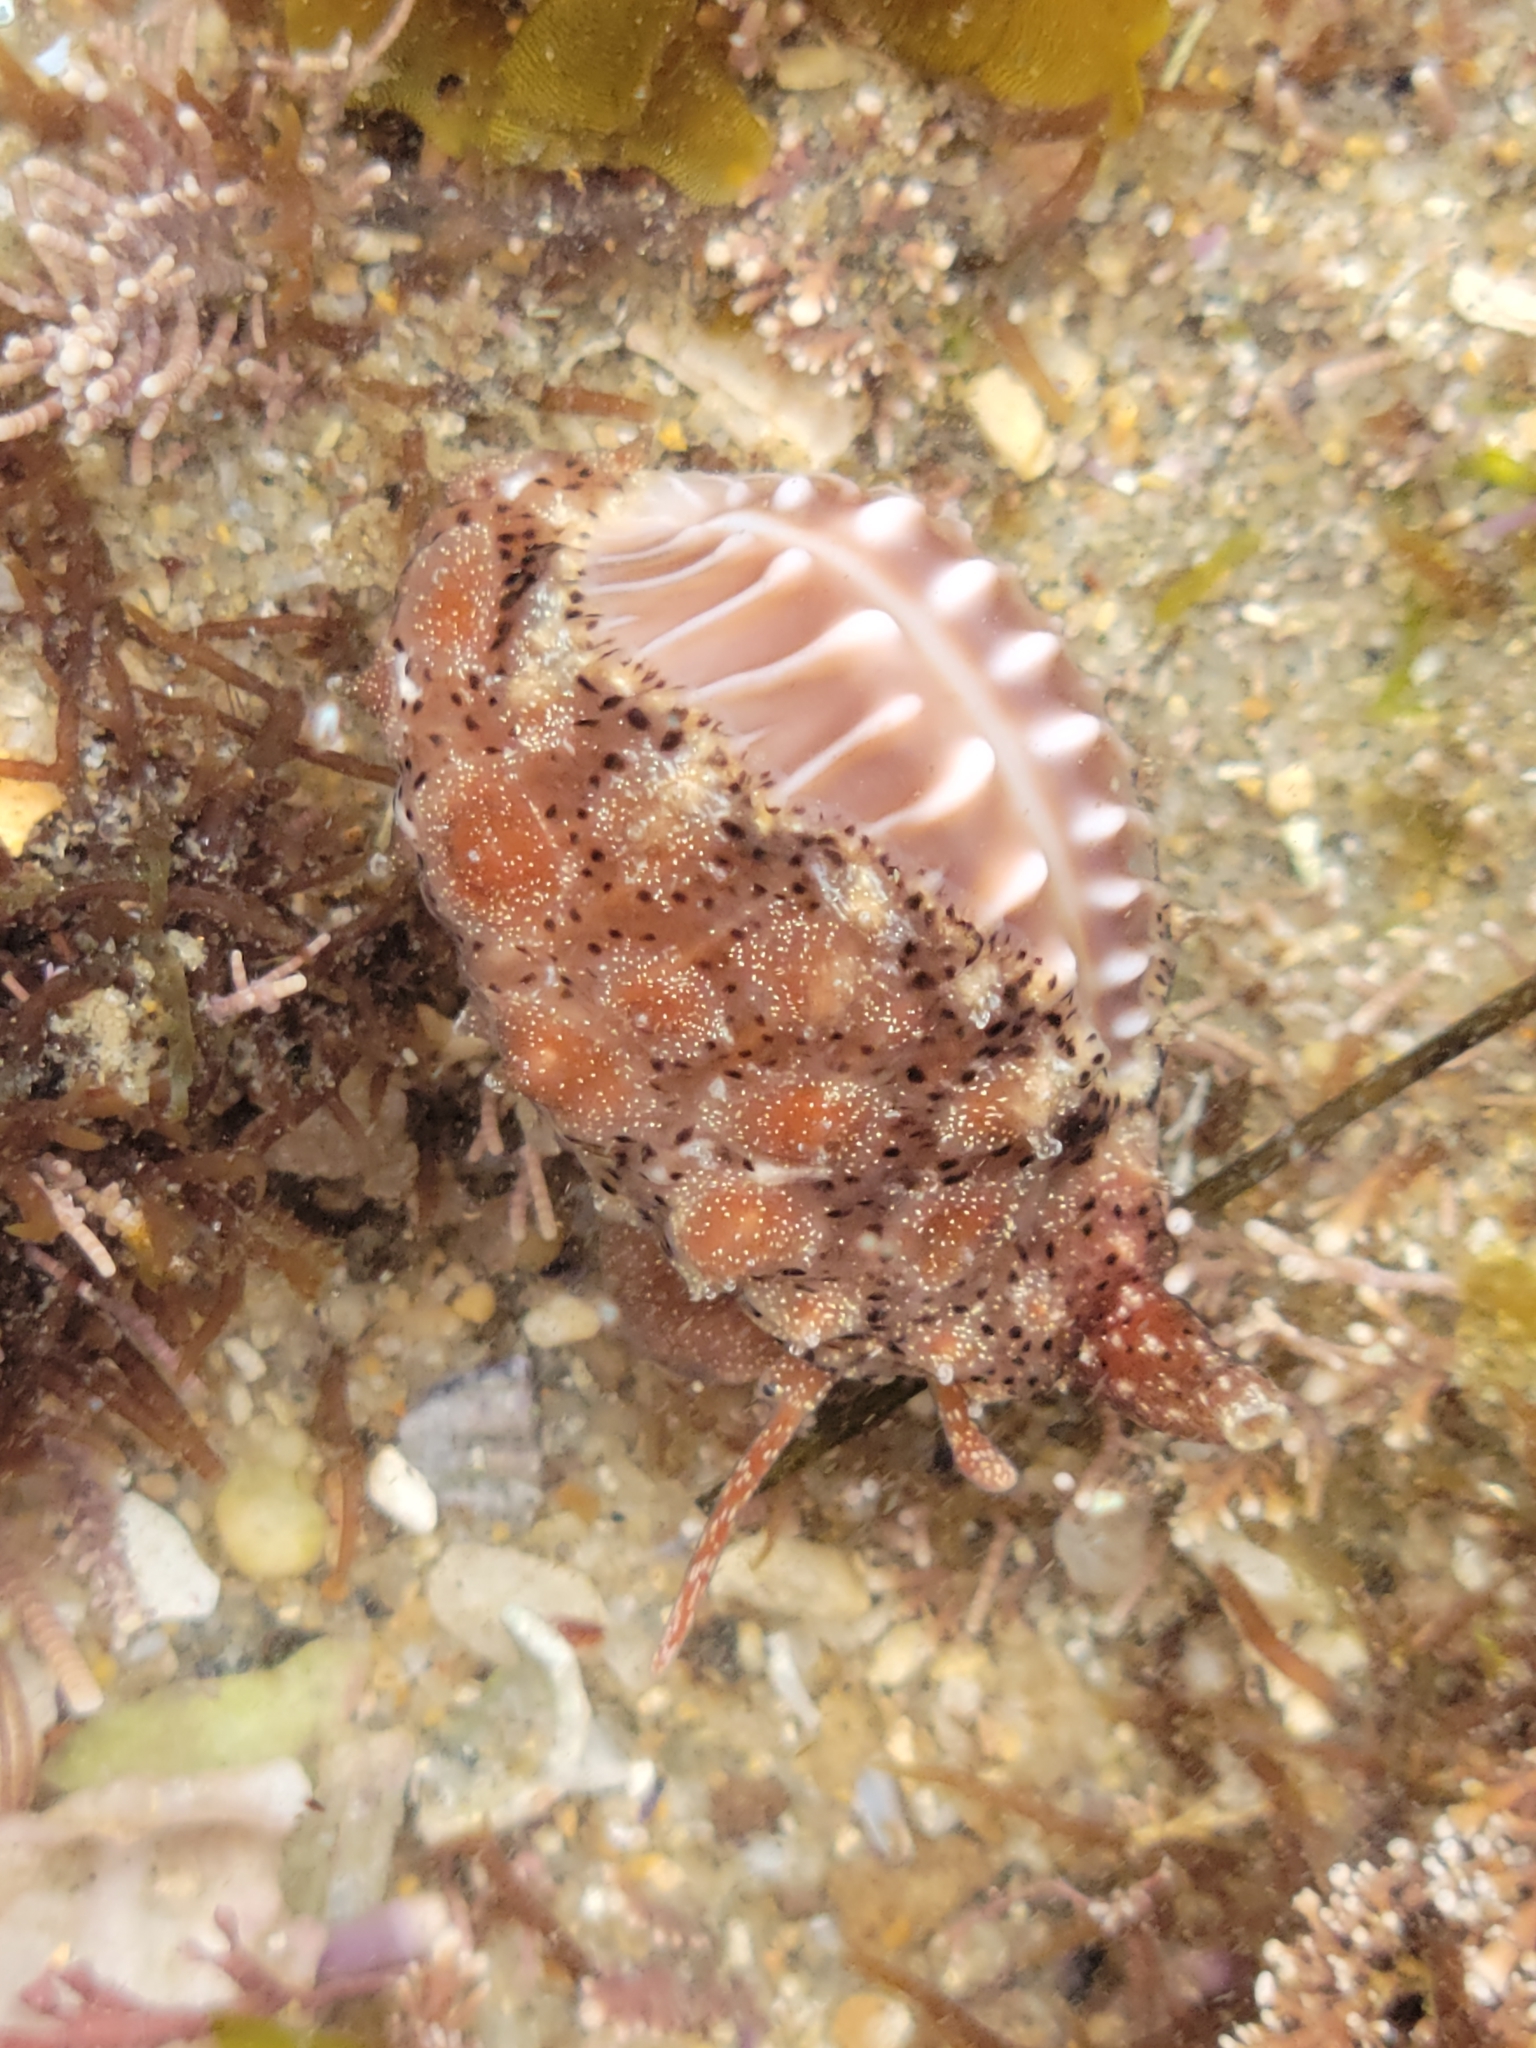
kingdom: Animalia
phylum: Mollusca
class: Gastropoda
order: Littorinimorpha
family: Triviidae
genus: Pusula
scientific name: Pusula solandri
